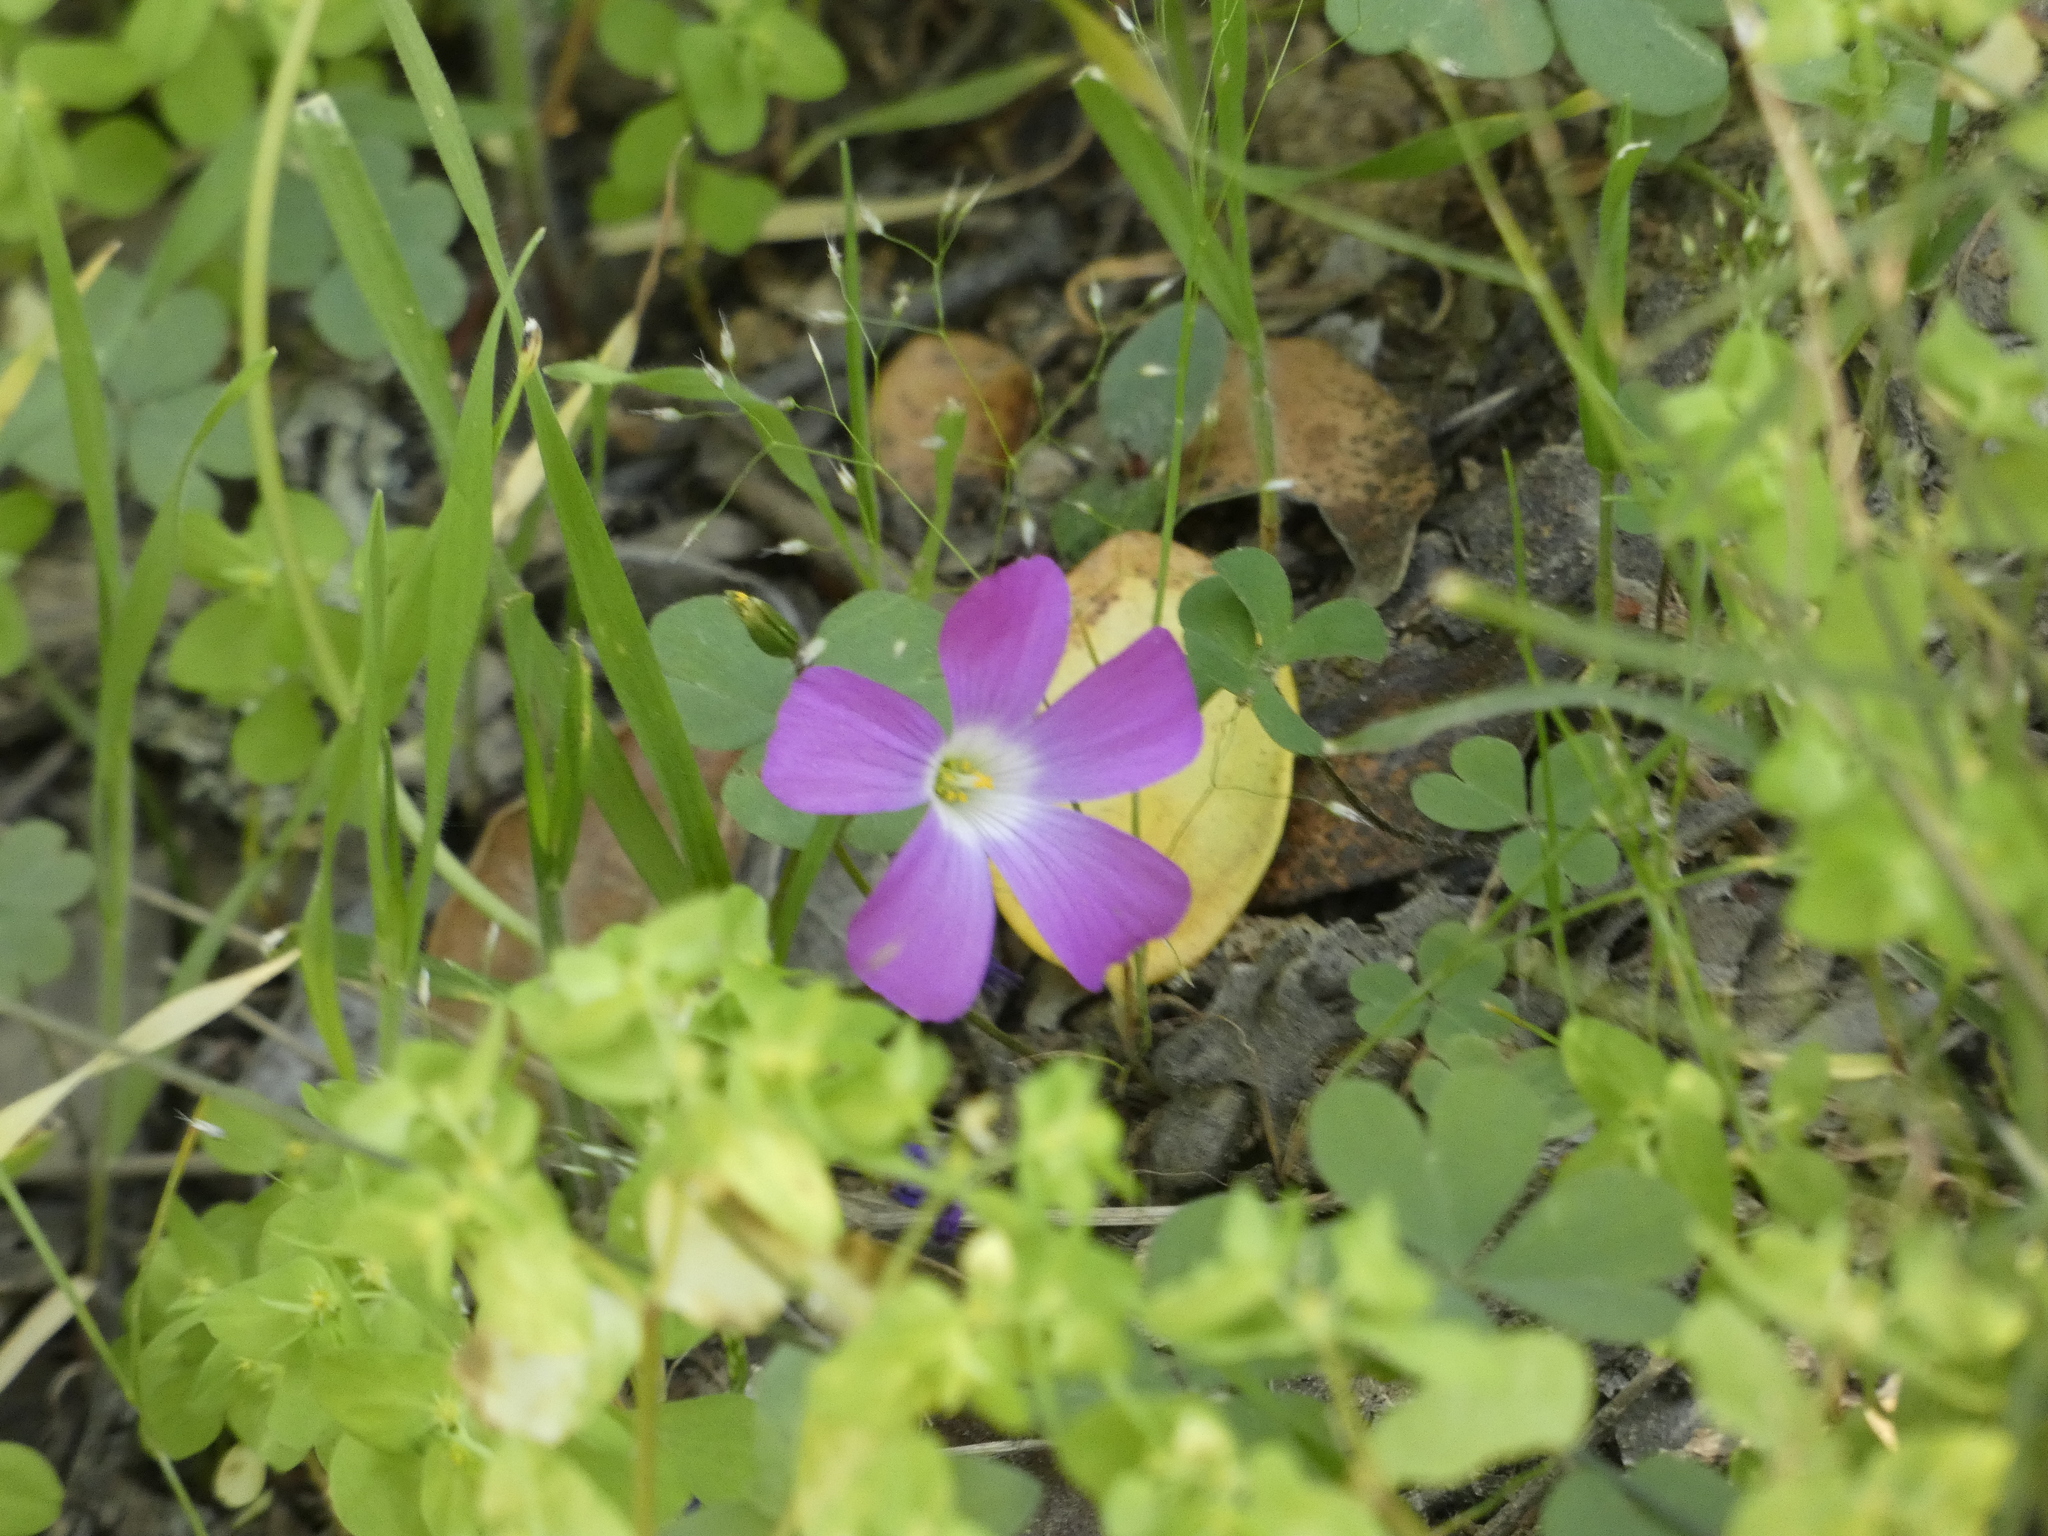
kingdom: Plantae
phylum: Tracheophyta
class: Magnoliopsida
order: Oxalidales
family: Oxalidaceae
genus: Oxalis
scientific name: Oxalis arenaria
